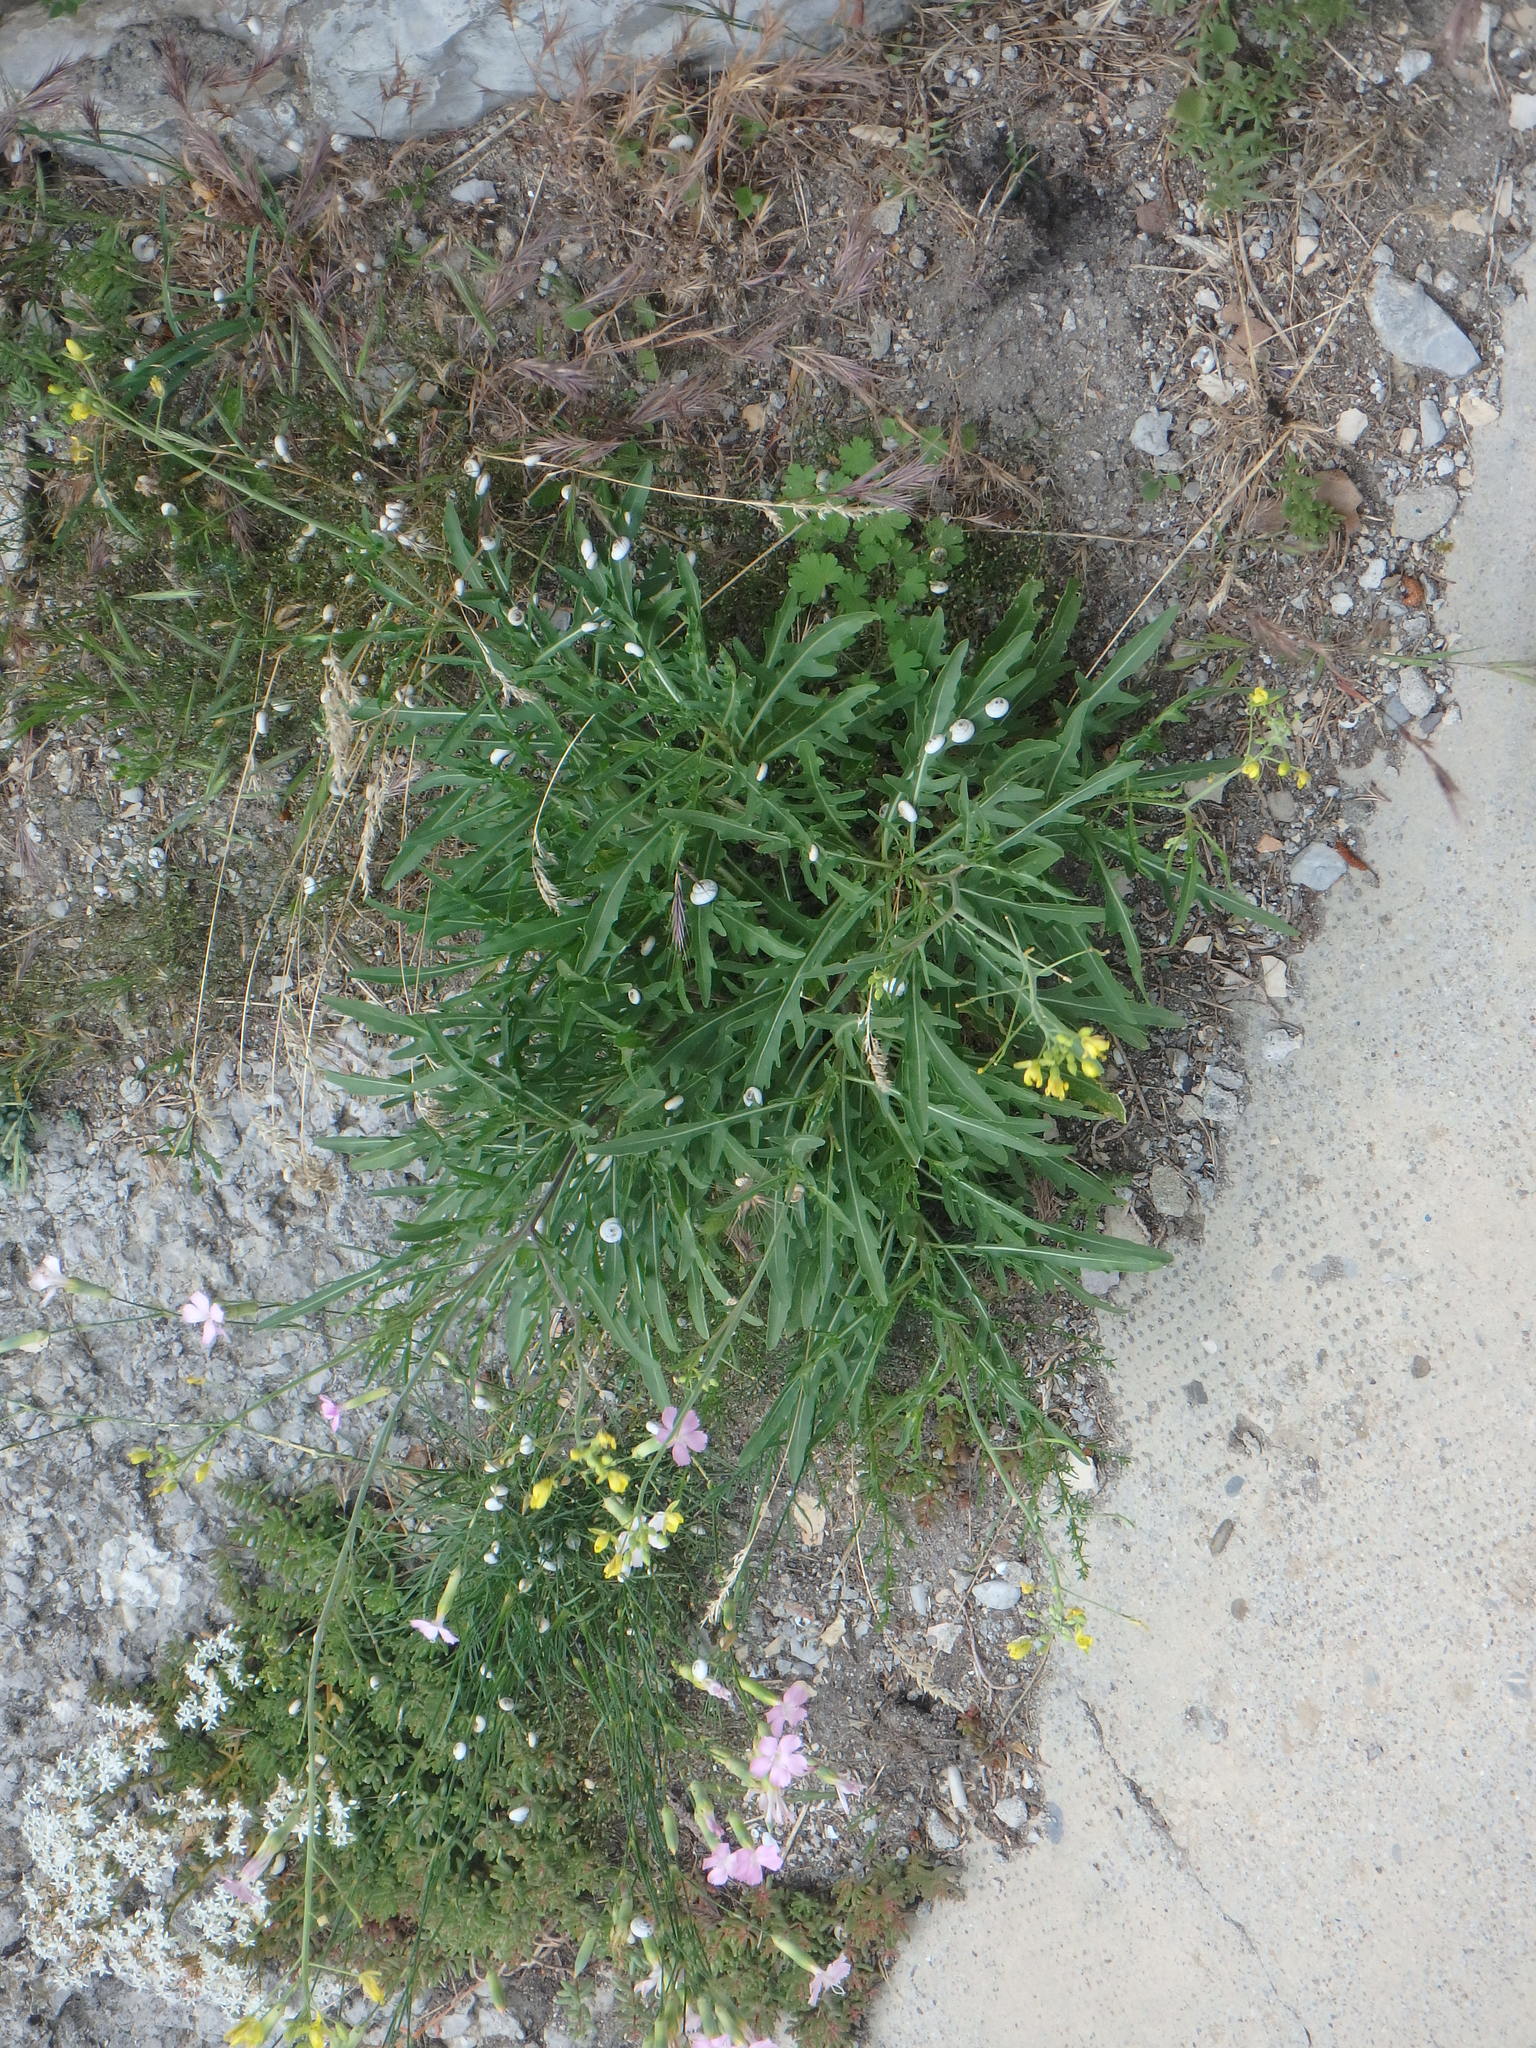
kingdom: Plantae
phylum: Tracheophyta
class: Magnoliopsida
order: Brassicales
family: Brassicaceae
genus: Diplotaxis
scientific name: Diplotaxis tenuifolia
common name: Perennial wall-rocket
